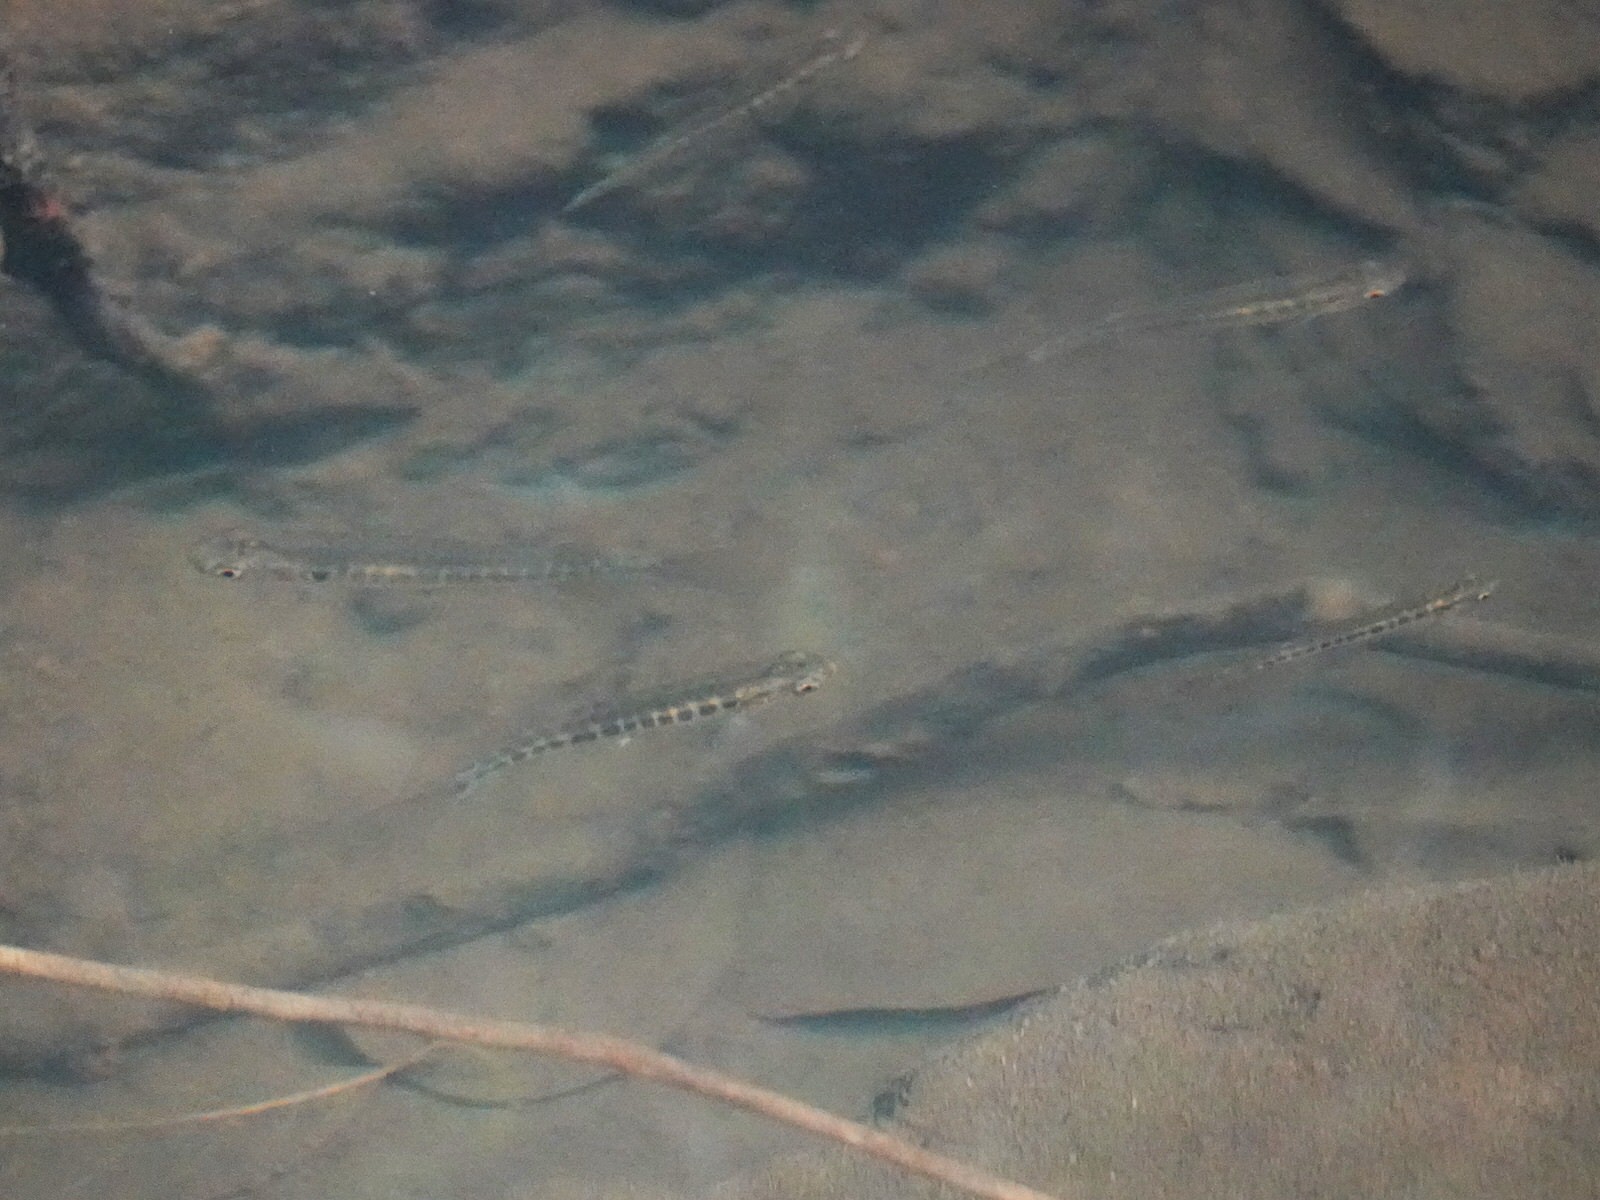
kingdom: Animalia
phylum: Chordata
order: Osmeriformes
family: Galaxiidae
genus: Galaxias
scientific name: Galaxias fasciatus
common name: Banded kokopu
